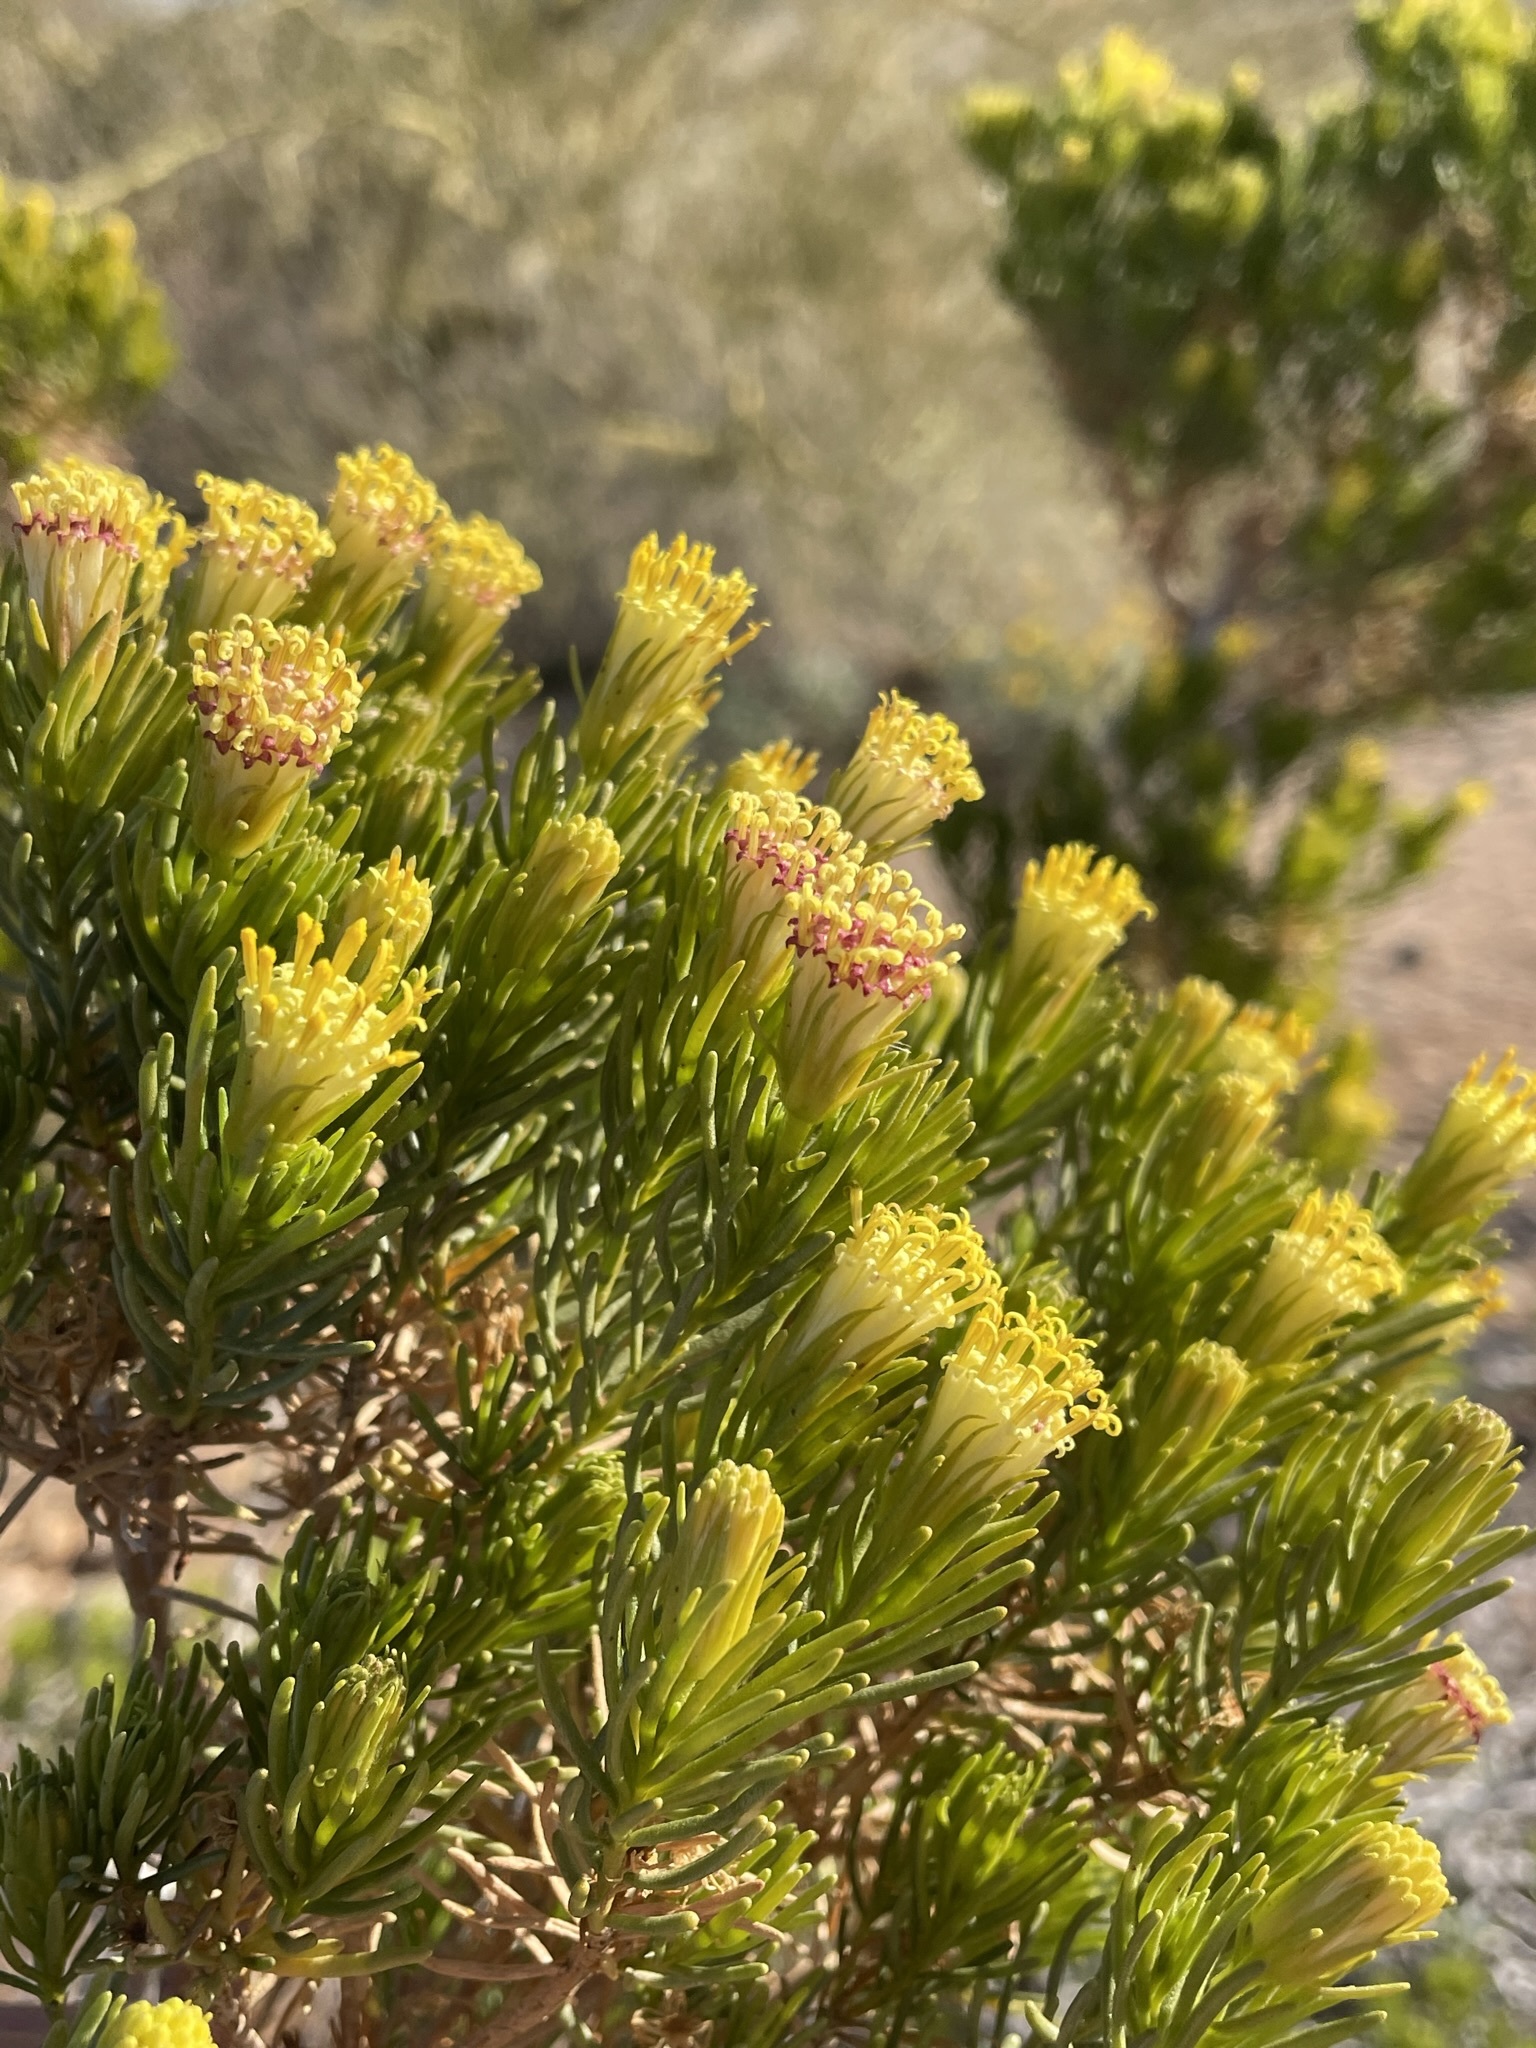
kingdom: Plantae
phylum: Tracheophyta
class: Magnoliopsida
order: Asterales
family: Asteraceae
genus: Peucephyllum
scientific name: Peucephyllum schottii
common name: Pygmy-cedar
